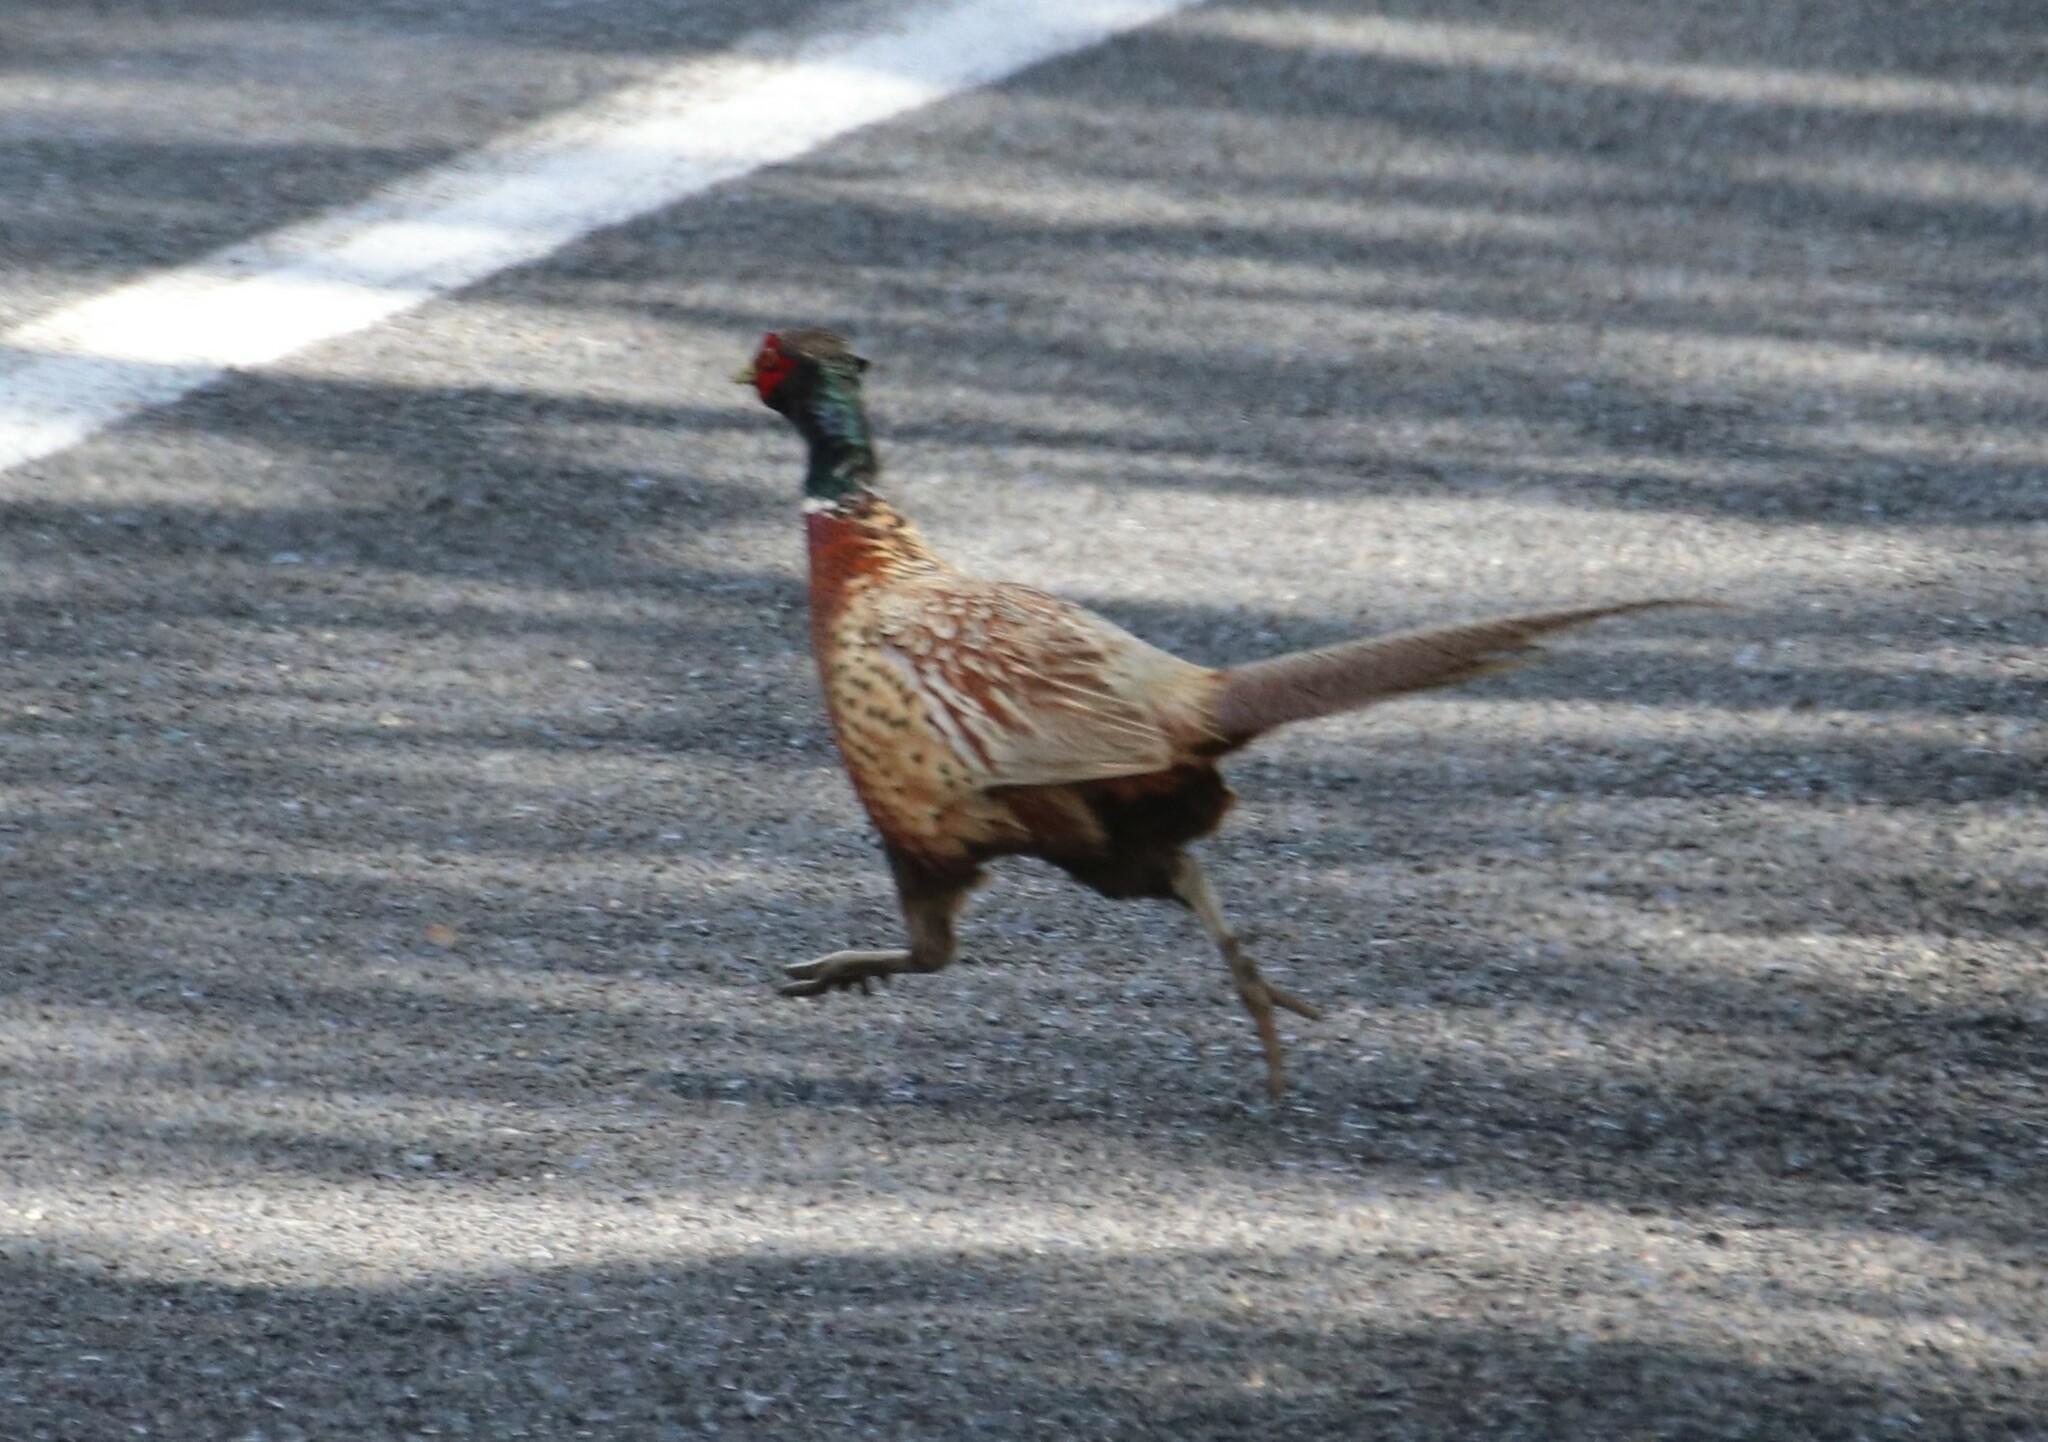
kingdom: Animalia
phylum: Chordata
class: Aves
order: Galliformes
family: Phasianidae
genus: Phasianus
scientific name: Phasianus colchicus
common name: Common pheasant
